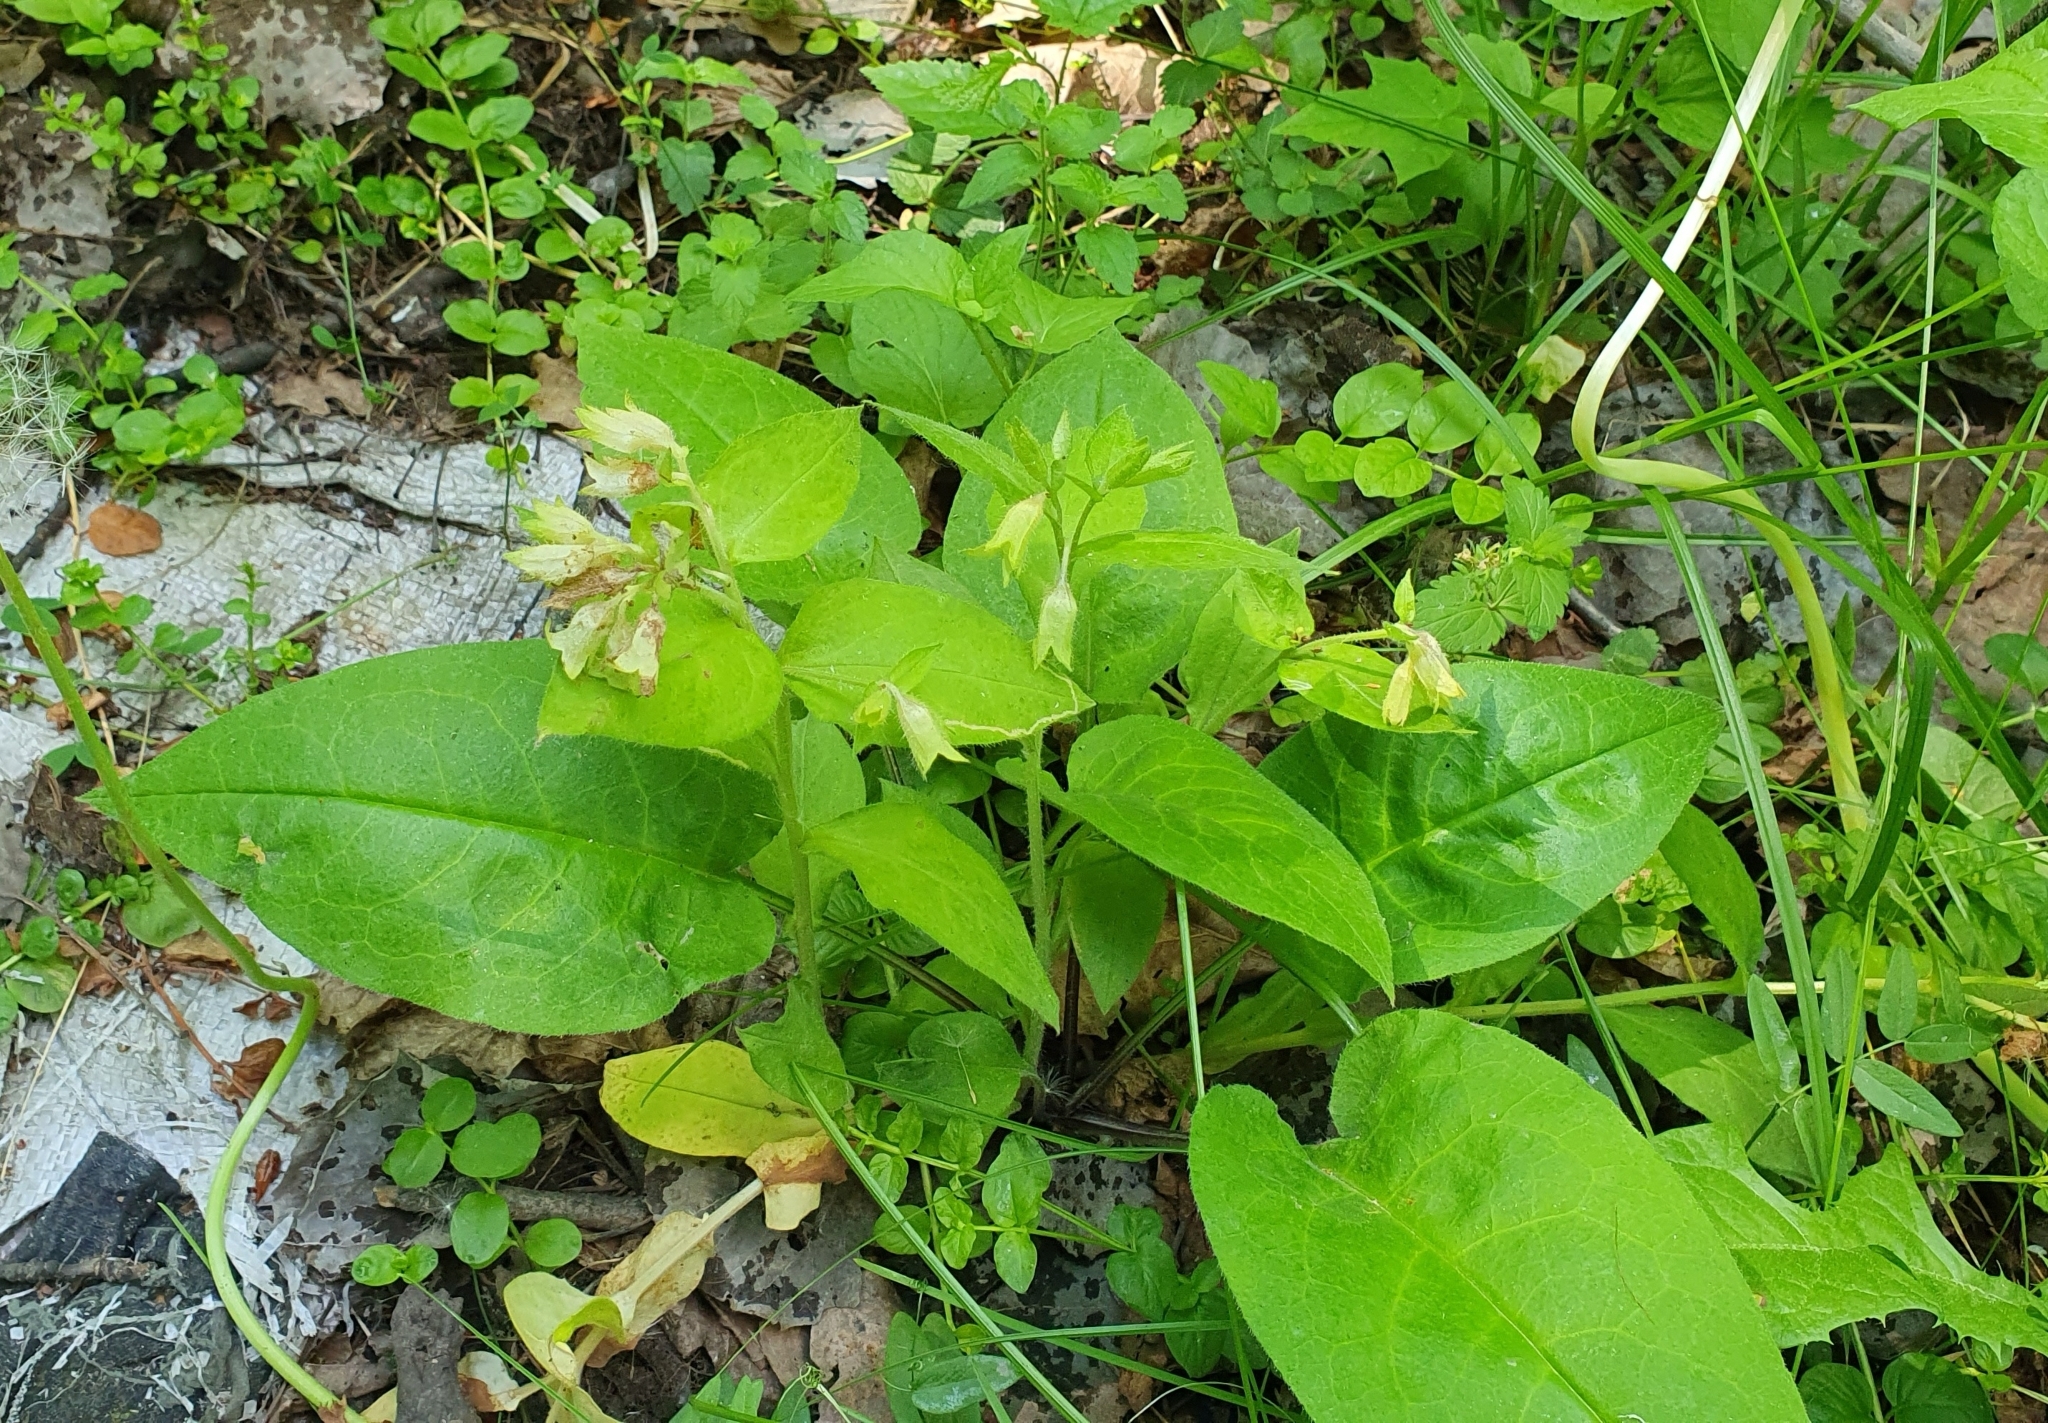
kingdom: Plantae
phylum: Tracheophyta
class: Magnoliopsida
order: Boraginales
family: Boraginaceae
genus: Pulmonaria
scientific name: Pulmonaria obscura
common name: Suffolk lungwort
